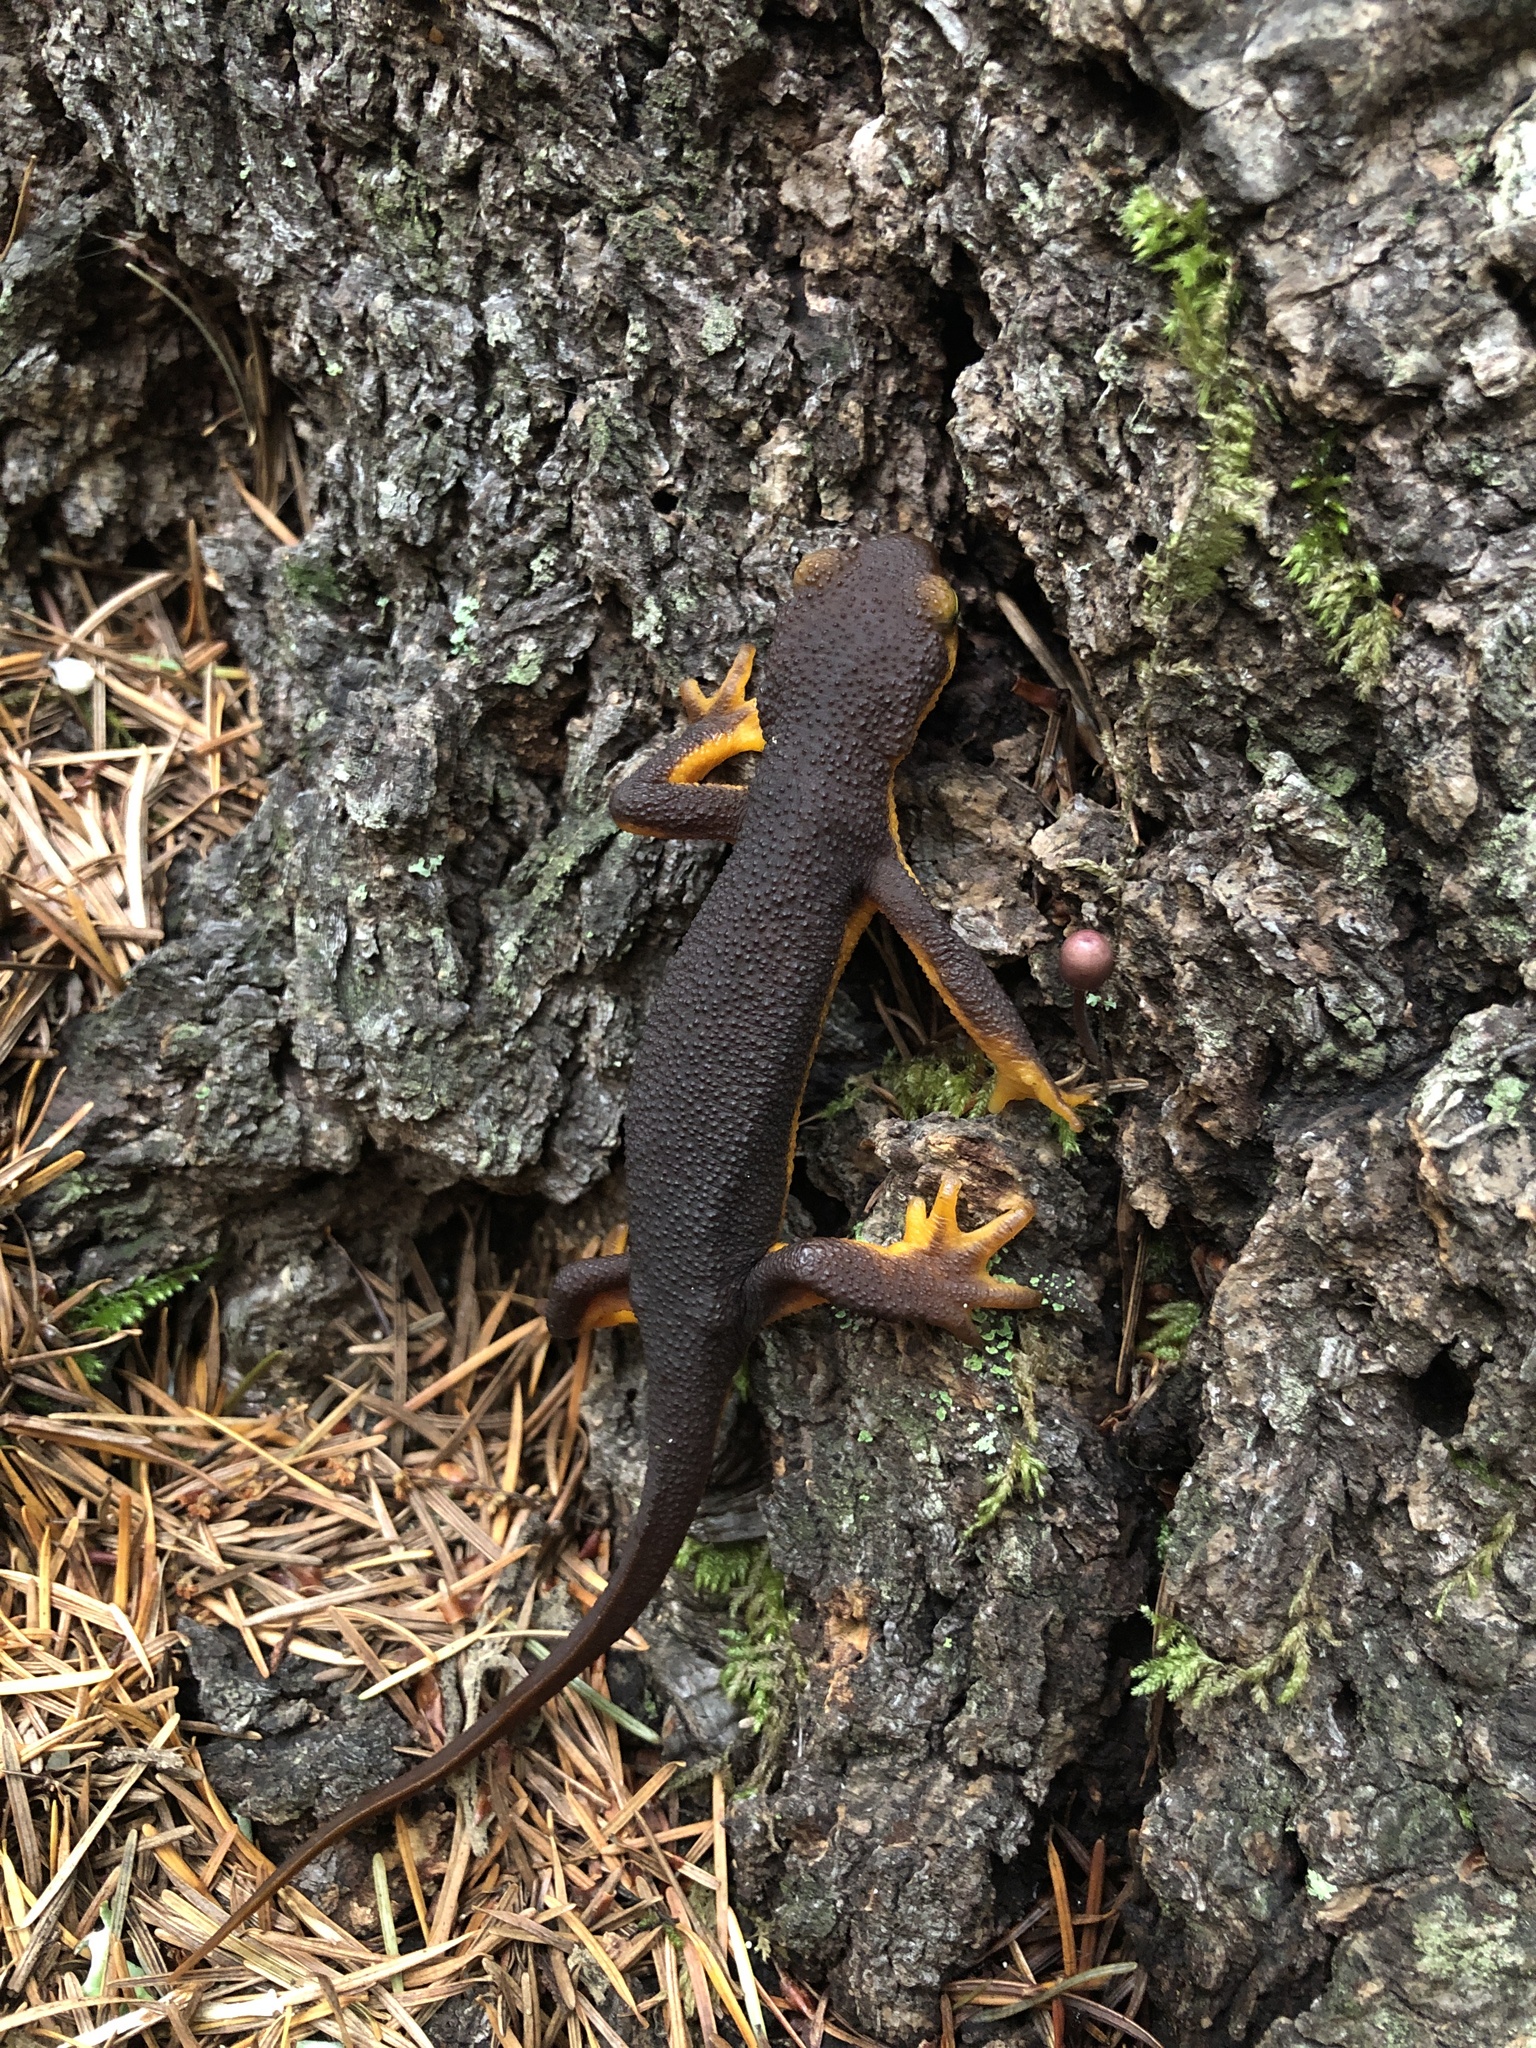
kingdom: Animalia
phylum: Chordata
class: Amphibia
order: Caudata
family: Salamandridae
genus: Taricha
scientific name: Taricha torosa
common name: California newt
